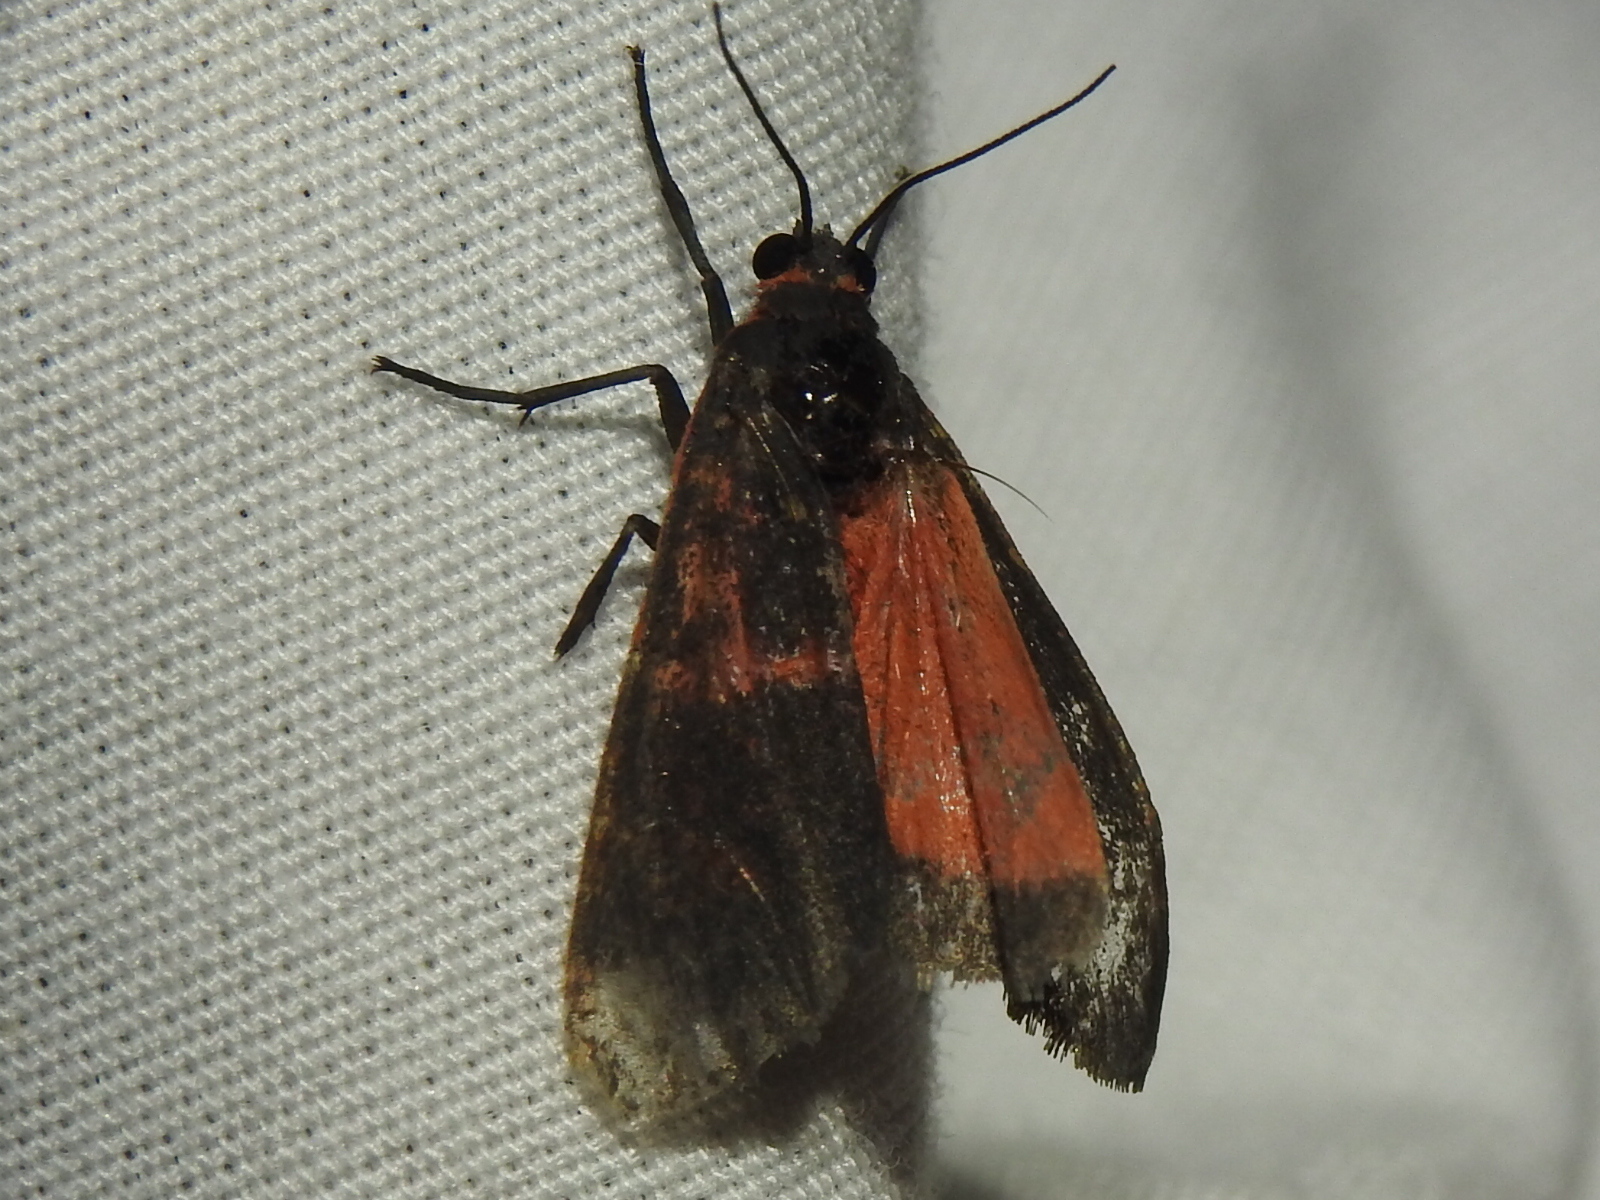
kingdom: Animalia
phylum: Arthropoda
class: Insecta
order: Lepidoptera
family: Erebidae
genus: Virbia
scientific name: Virbia laeta
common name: Joyful holomelina moth
